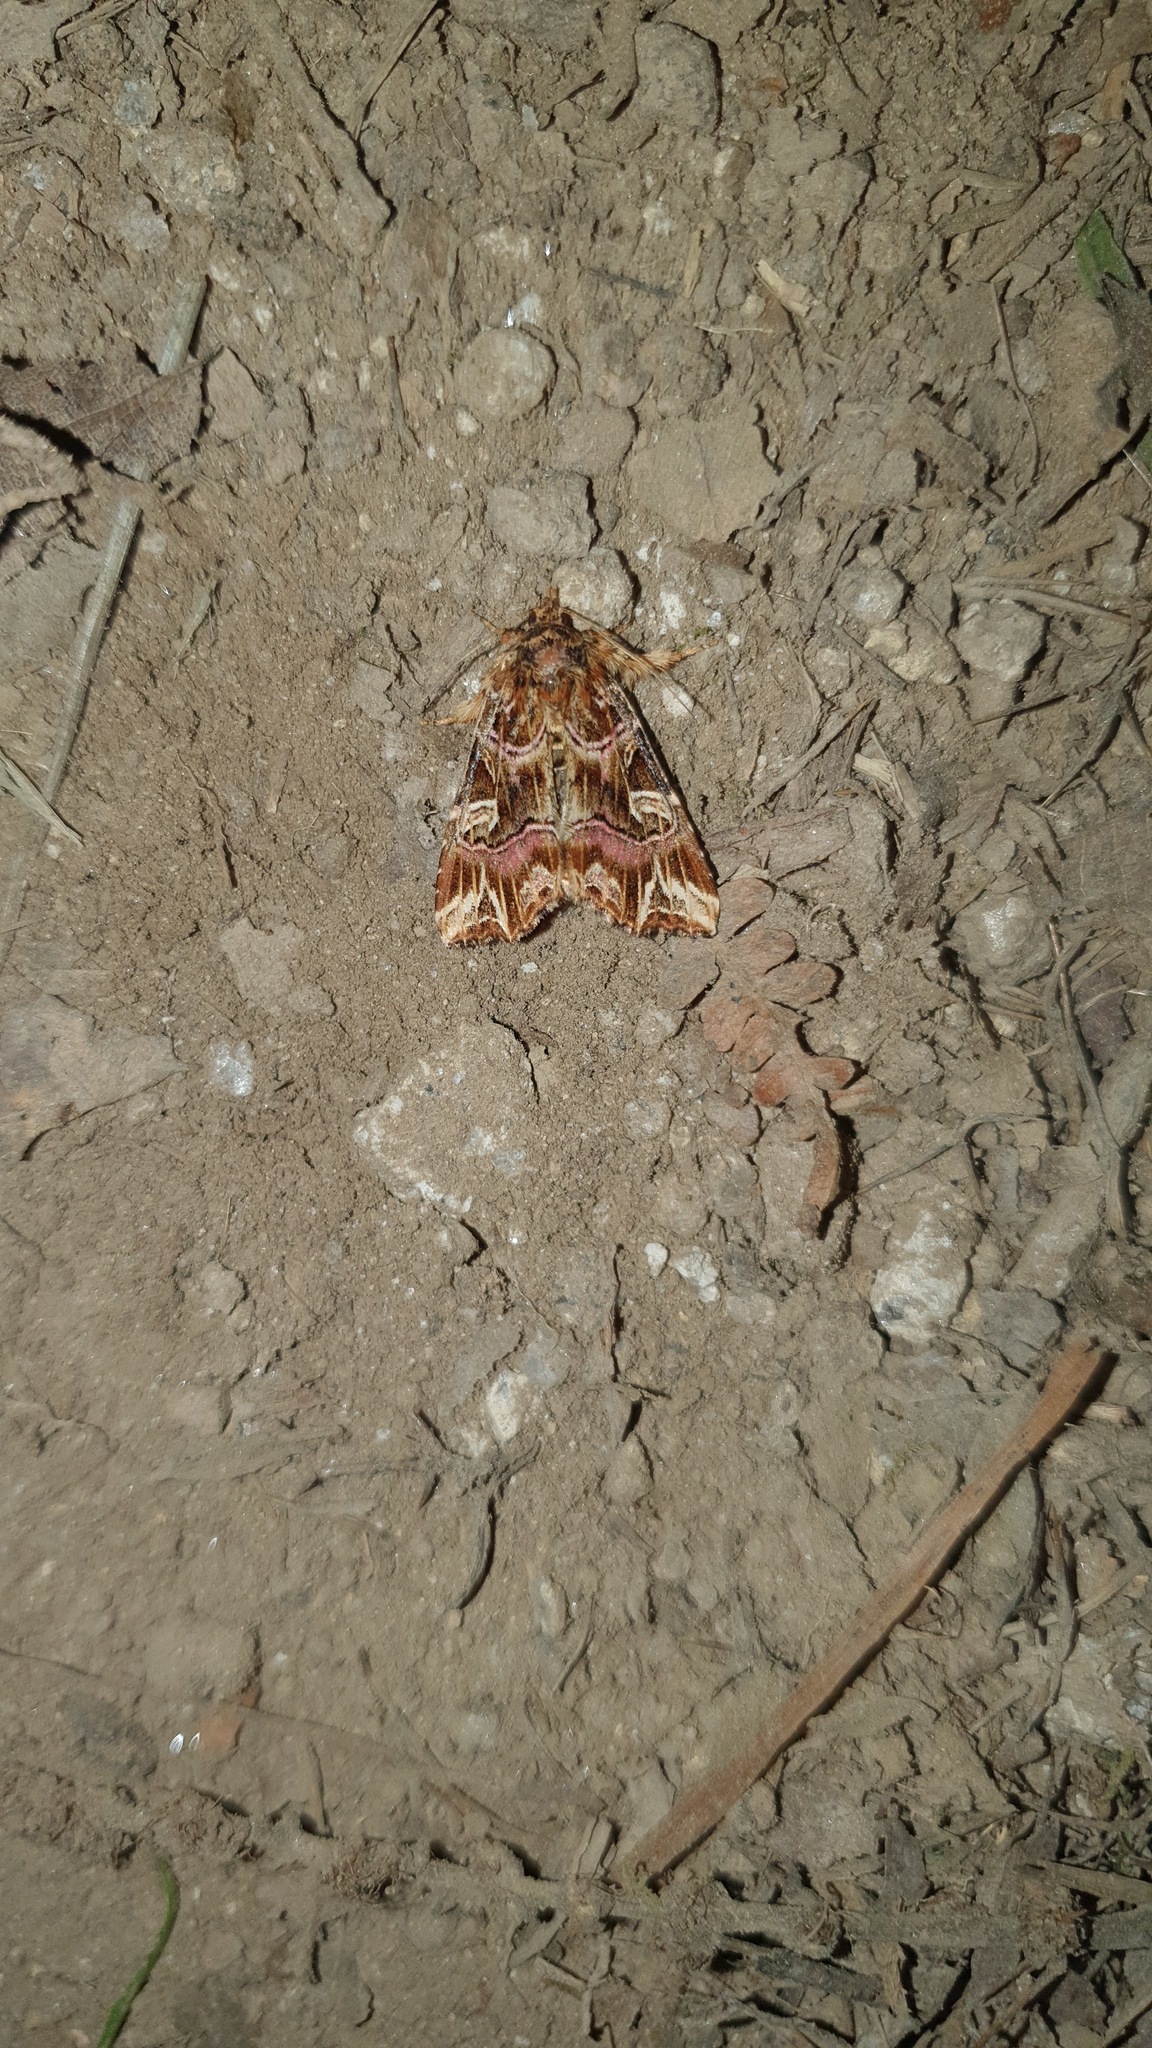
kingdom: Animalia
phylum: Arthropoda
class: Insecta
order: Lepidoptera
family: Noctuidae
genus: Callopistria
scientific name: Callopistria juventina
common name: Latin
